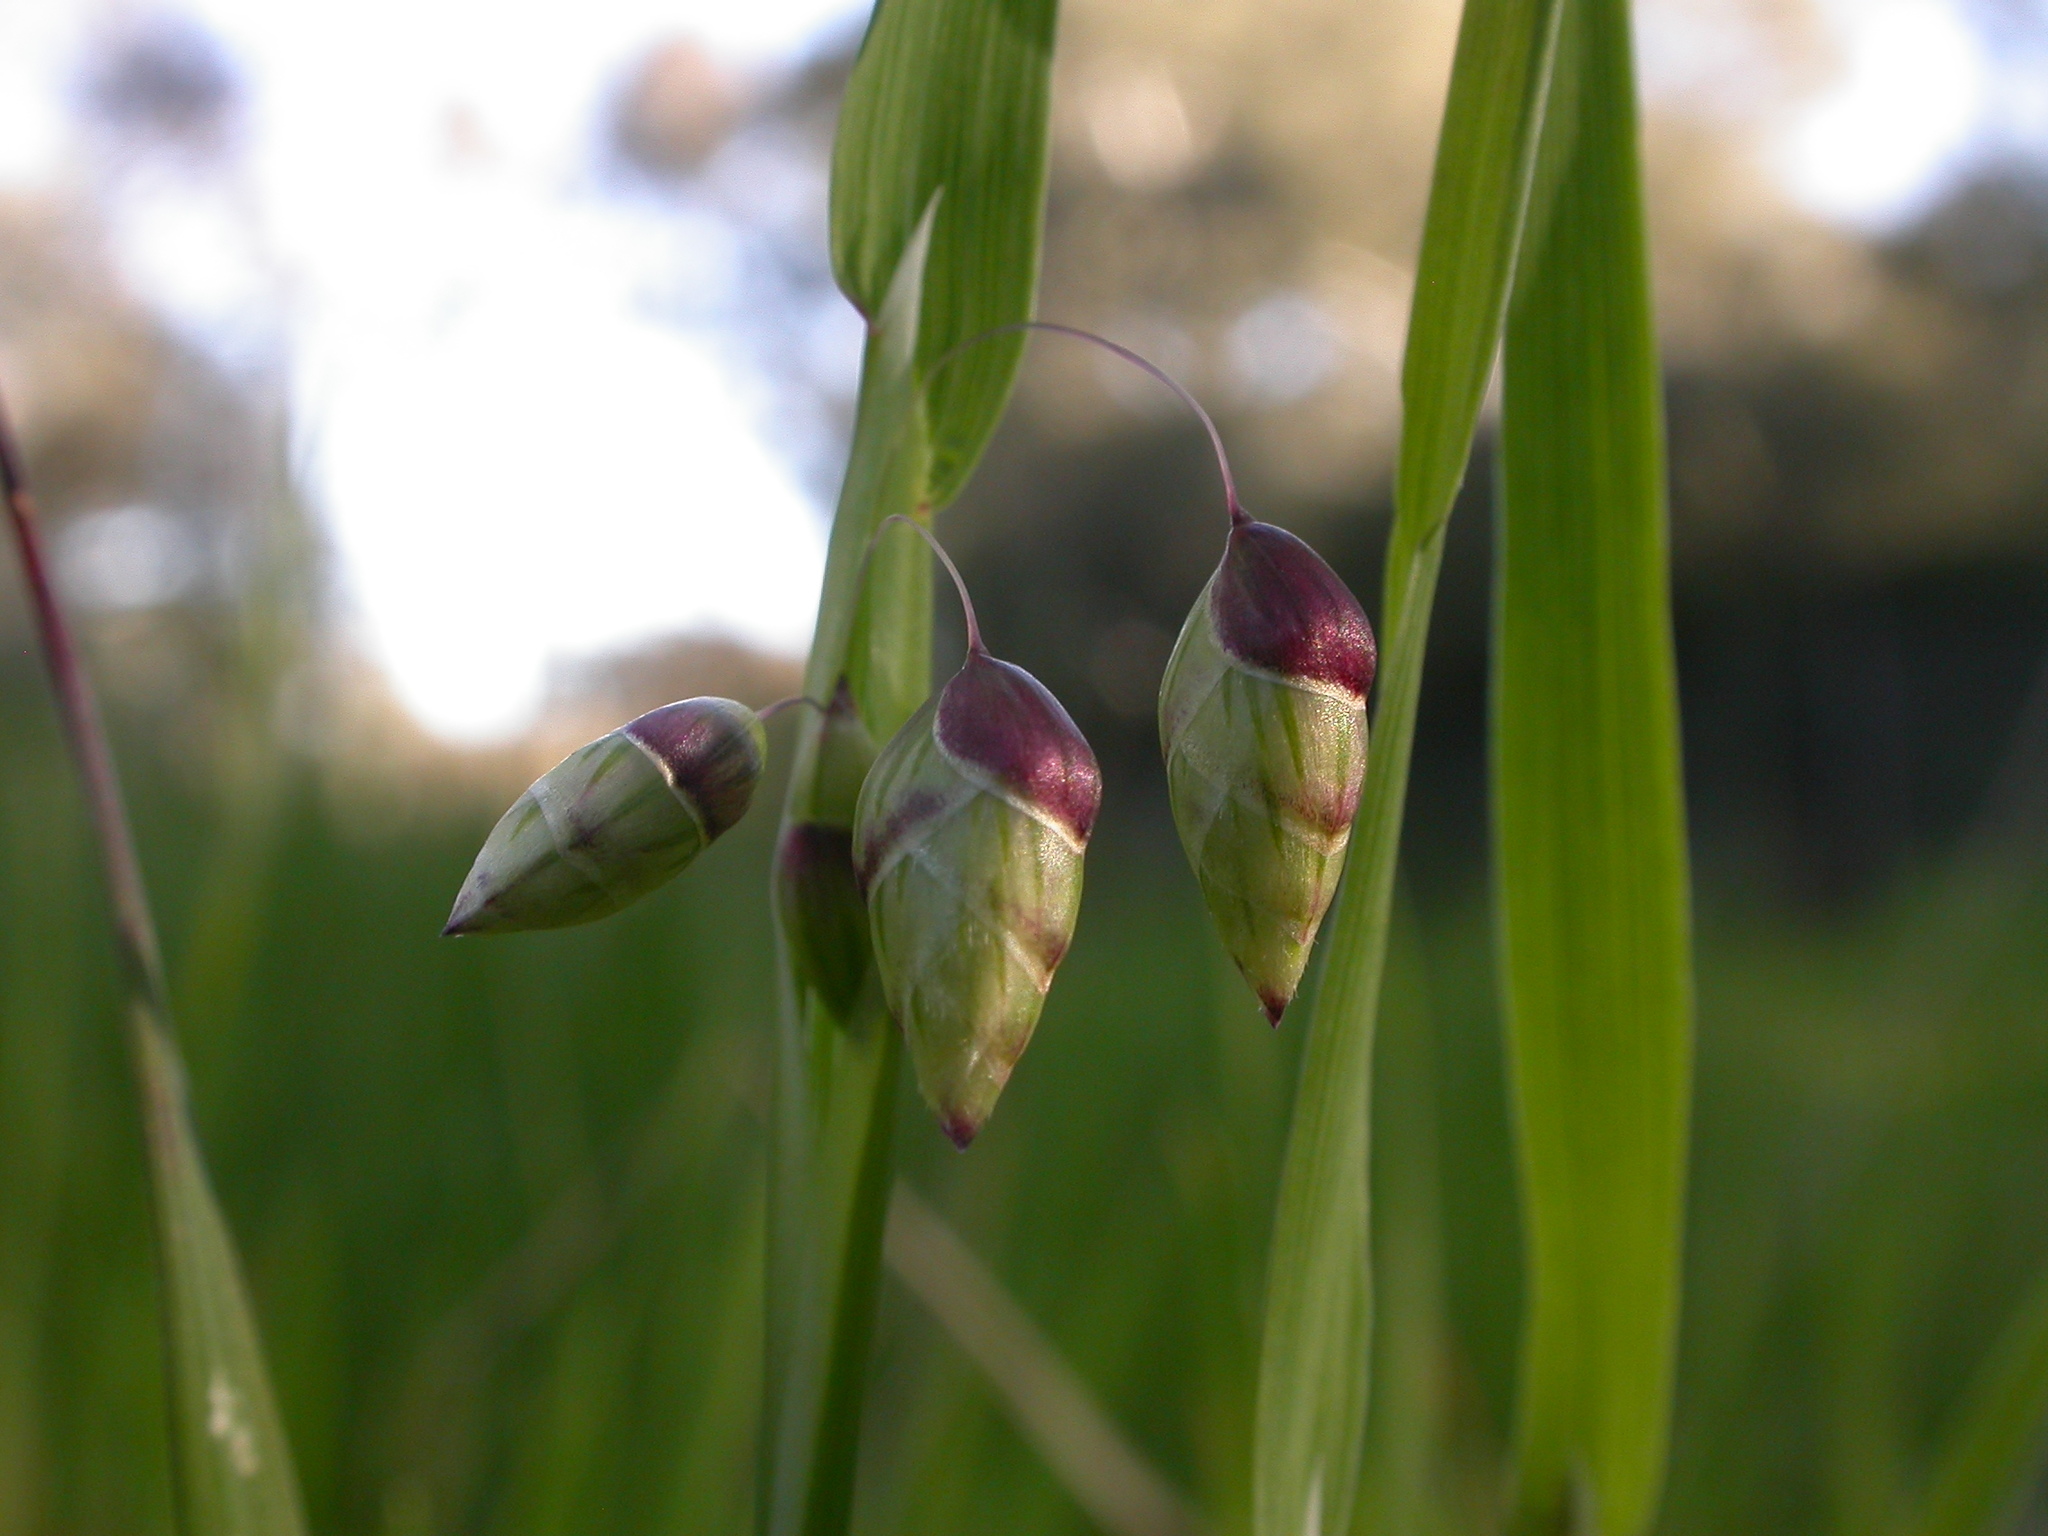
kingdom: Plantae
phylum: Tracheophyta
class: Liliopsida
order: Poales
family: Poaceae
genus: Briza
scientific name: Briza maxima
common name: Big quakinggrass
